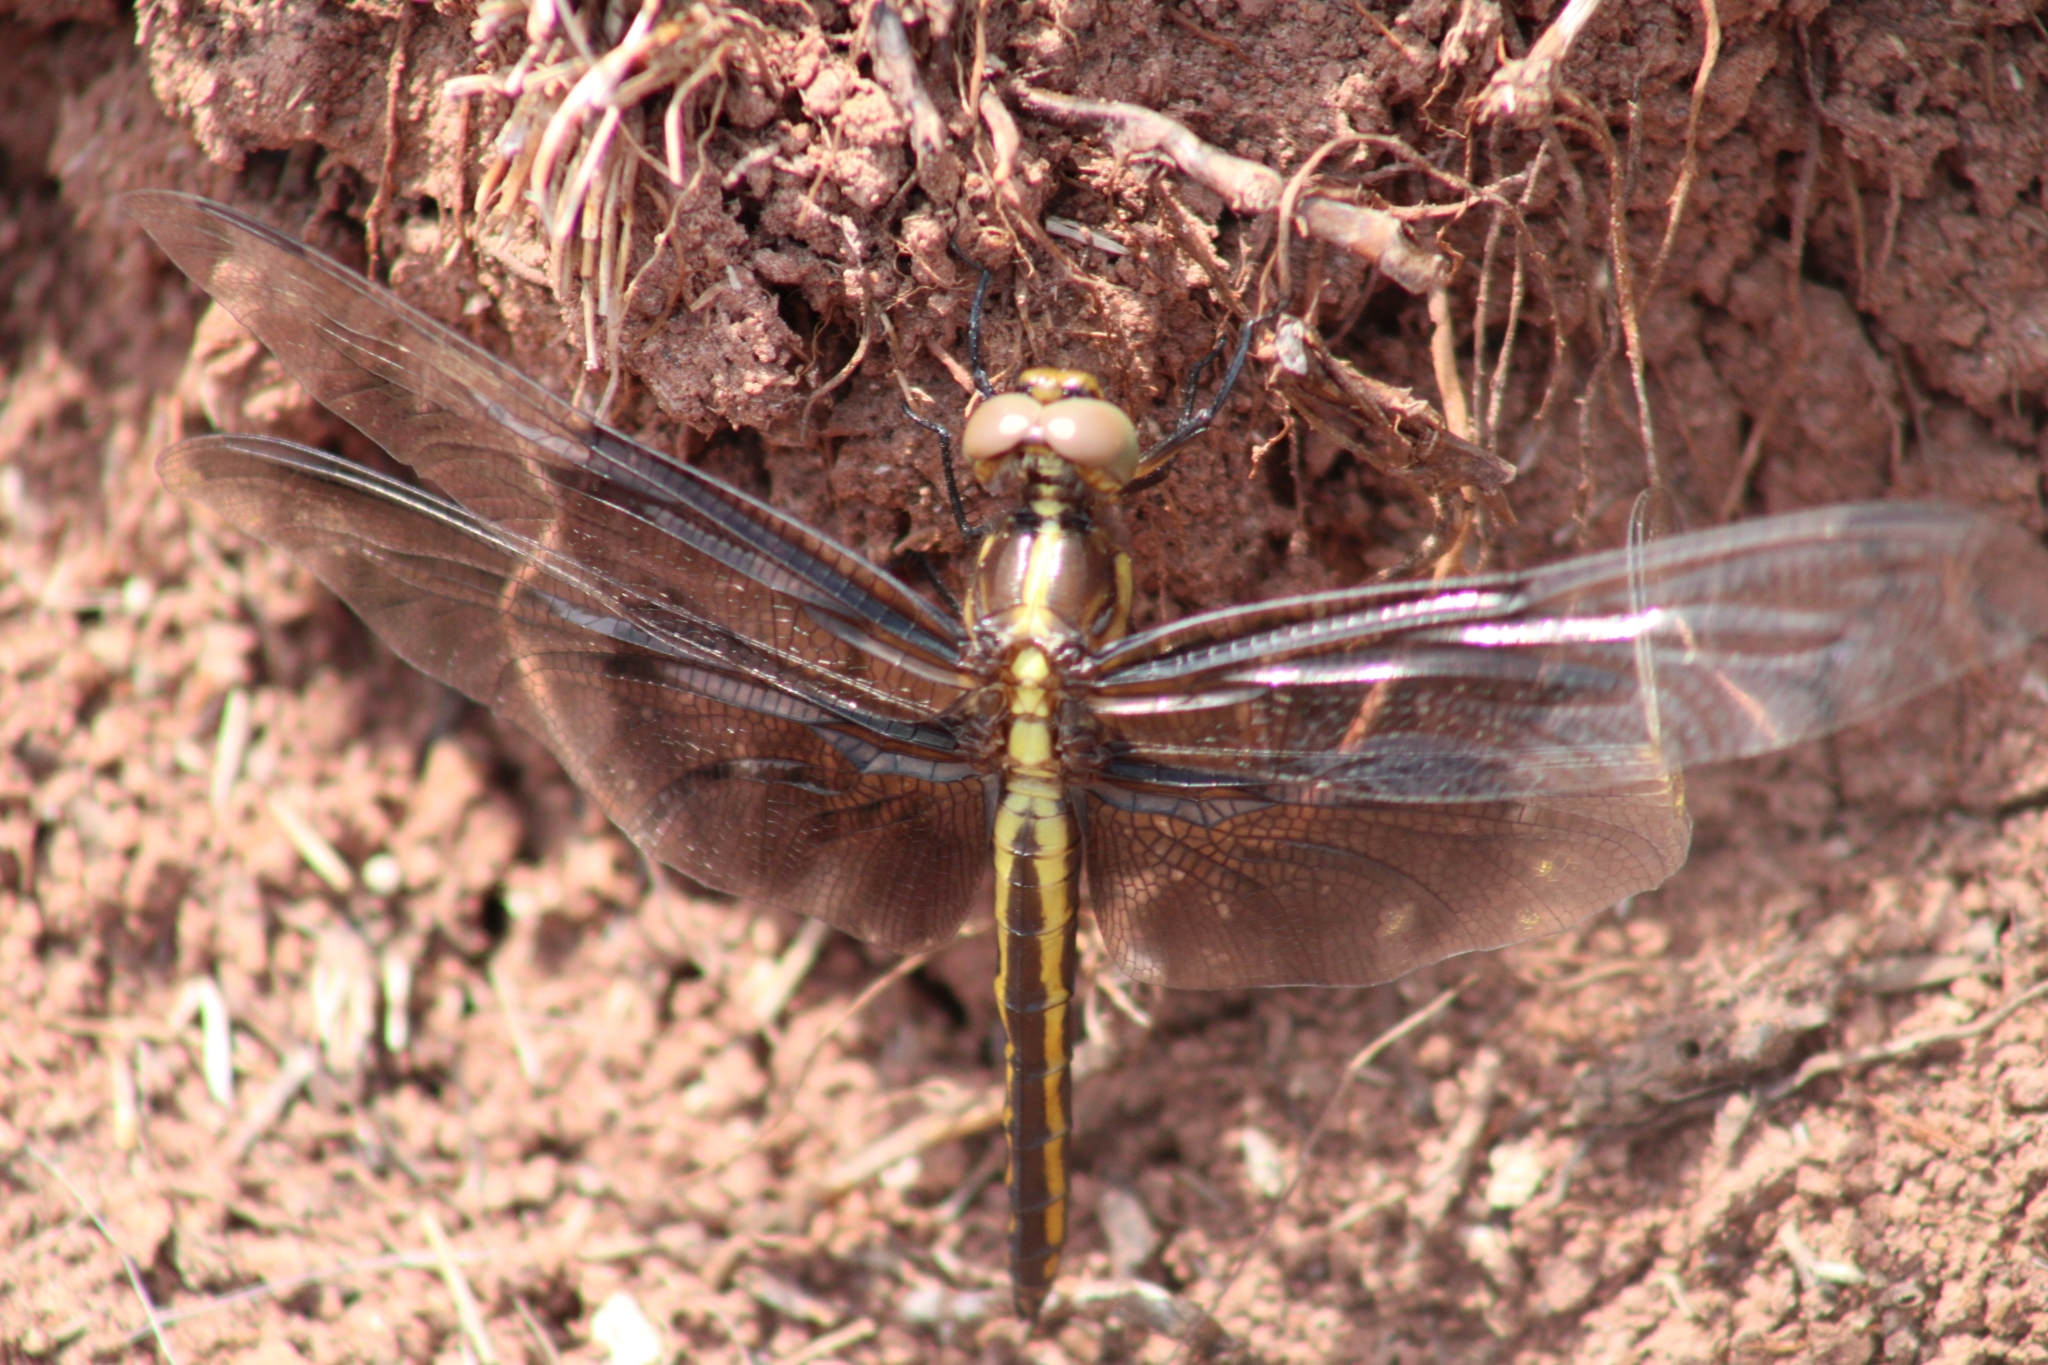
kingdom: Animalia
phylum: Arthropoda
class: Insecta
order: Odonata
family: Libellulidae
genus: Libellula
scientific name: Libellula luctuosa
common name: Widow skimmer
